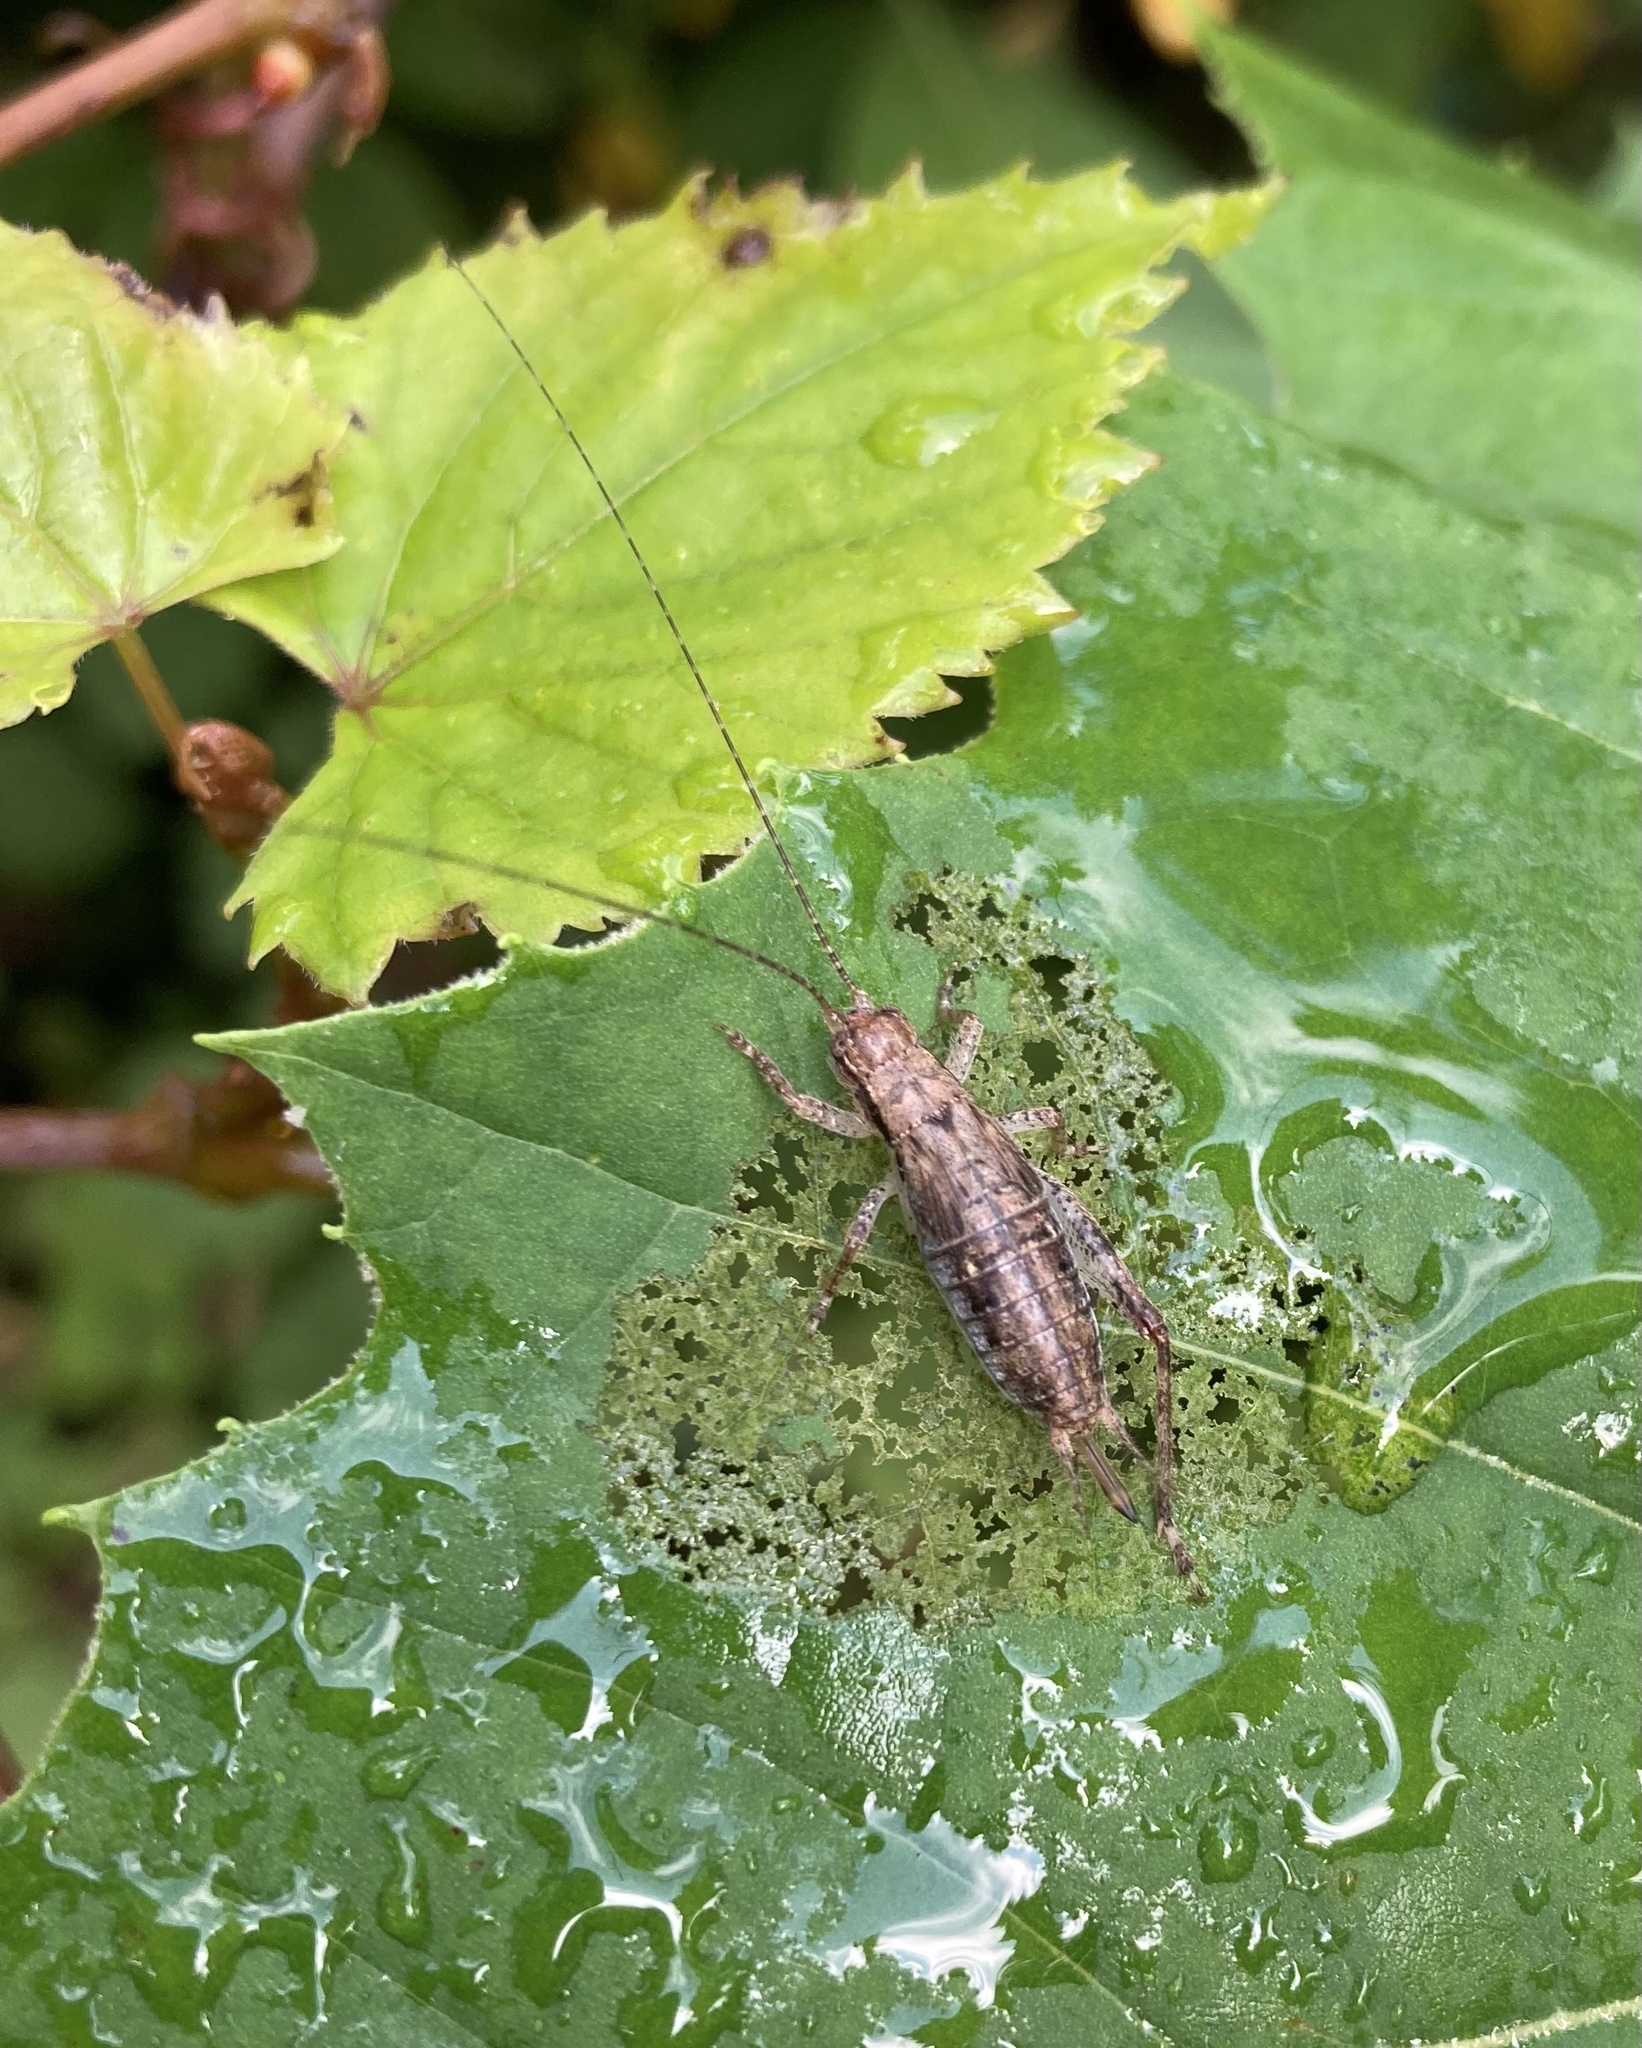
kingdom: Animalia
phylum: Arthropoda
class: Insecta
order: Orthoptera
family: Gryllidae
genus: Hapithus
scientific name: Hapithus saltator
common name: Jumping bush cricket
